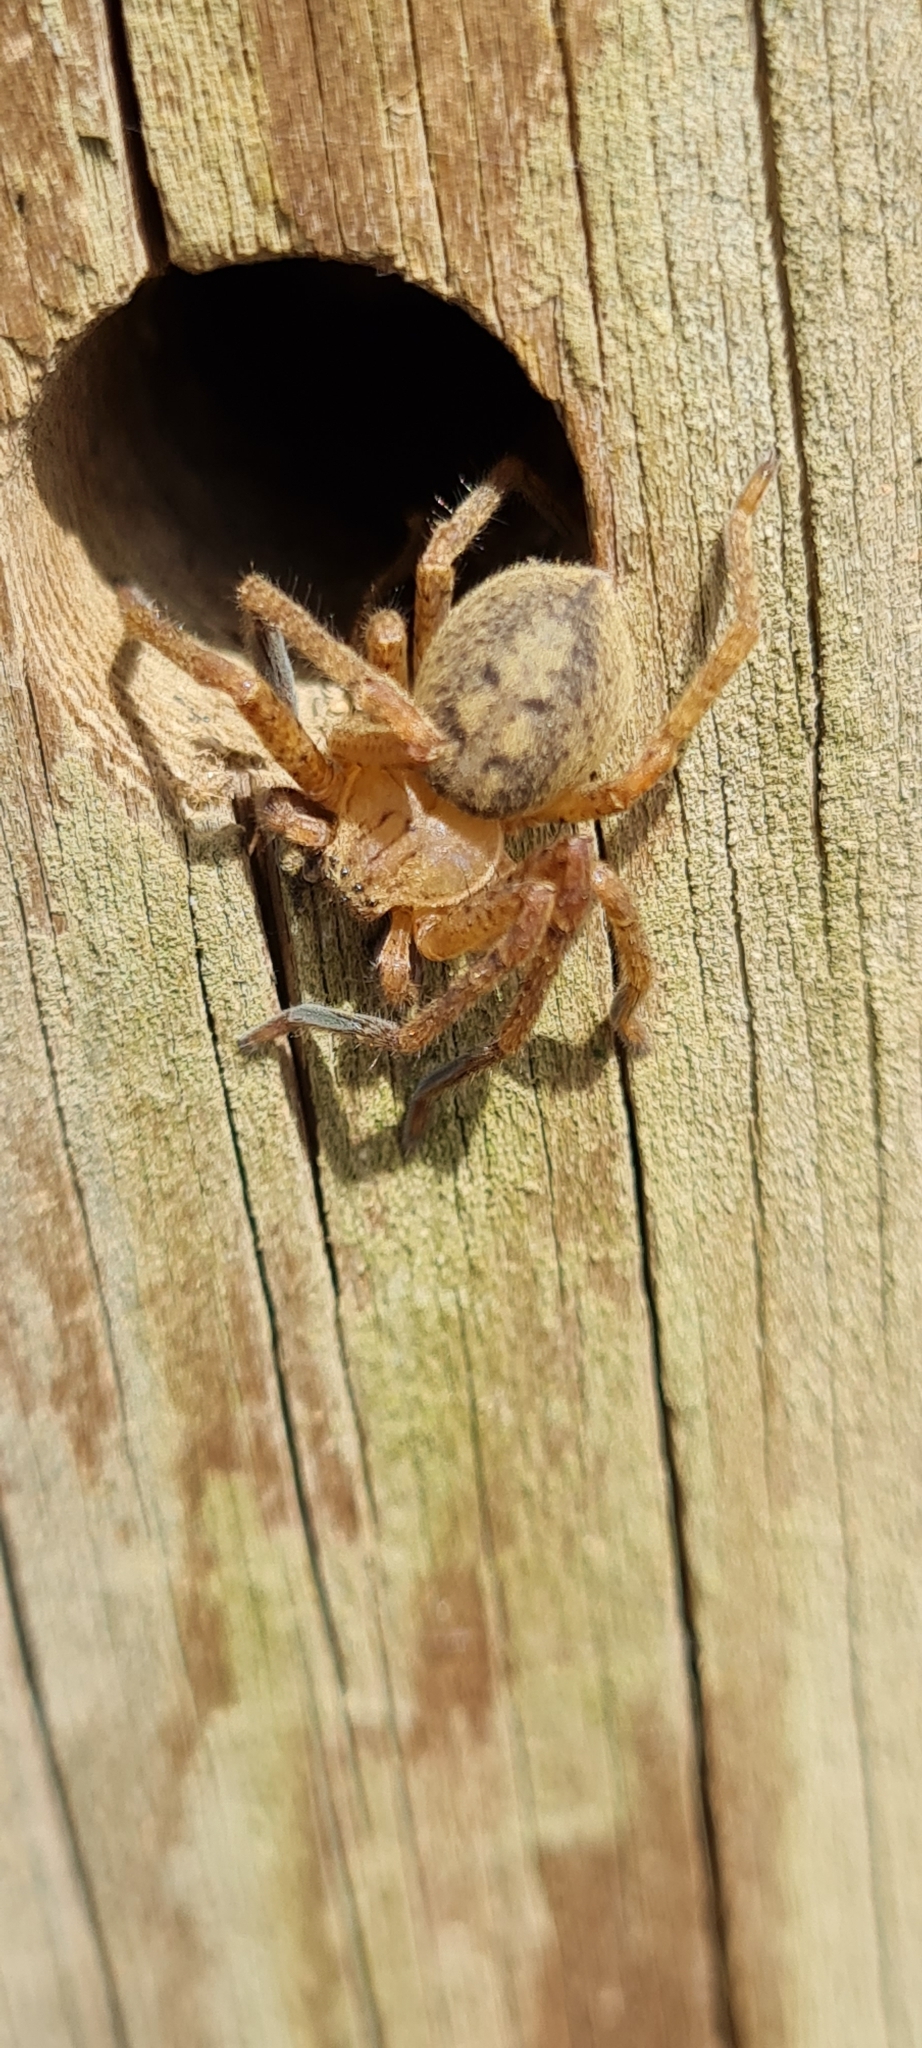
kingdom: Animalia
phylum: Arthropoda
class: Arachnida
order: Araneae
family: Sparassidae
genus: Olios
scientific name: Olios argelasius
